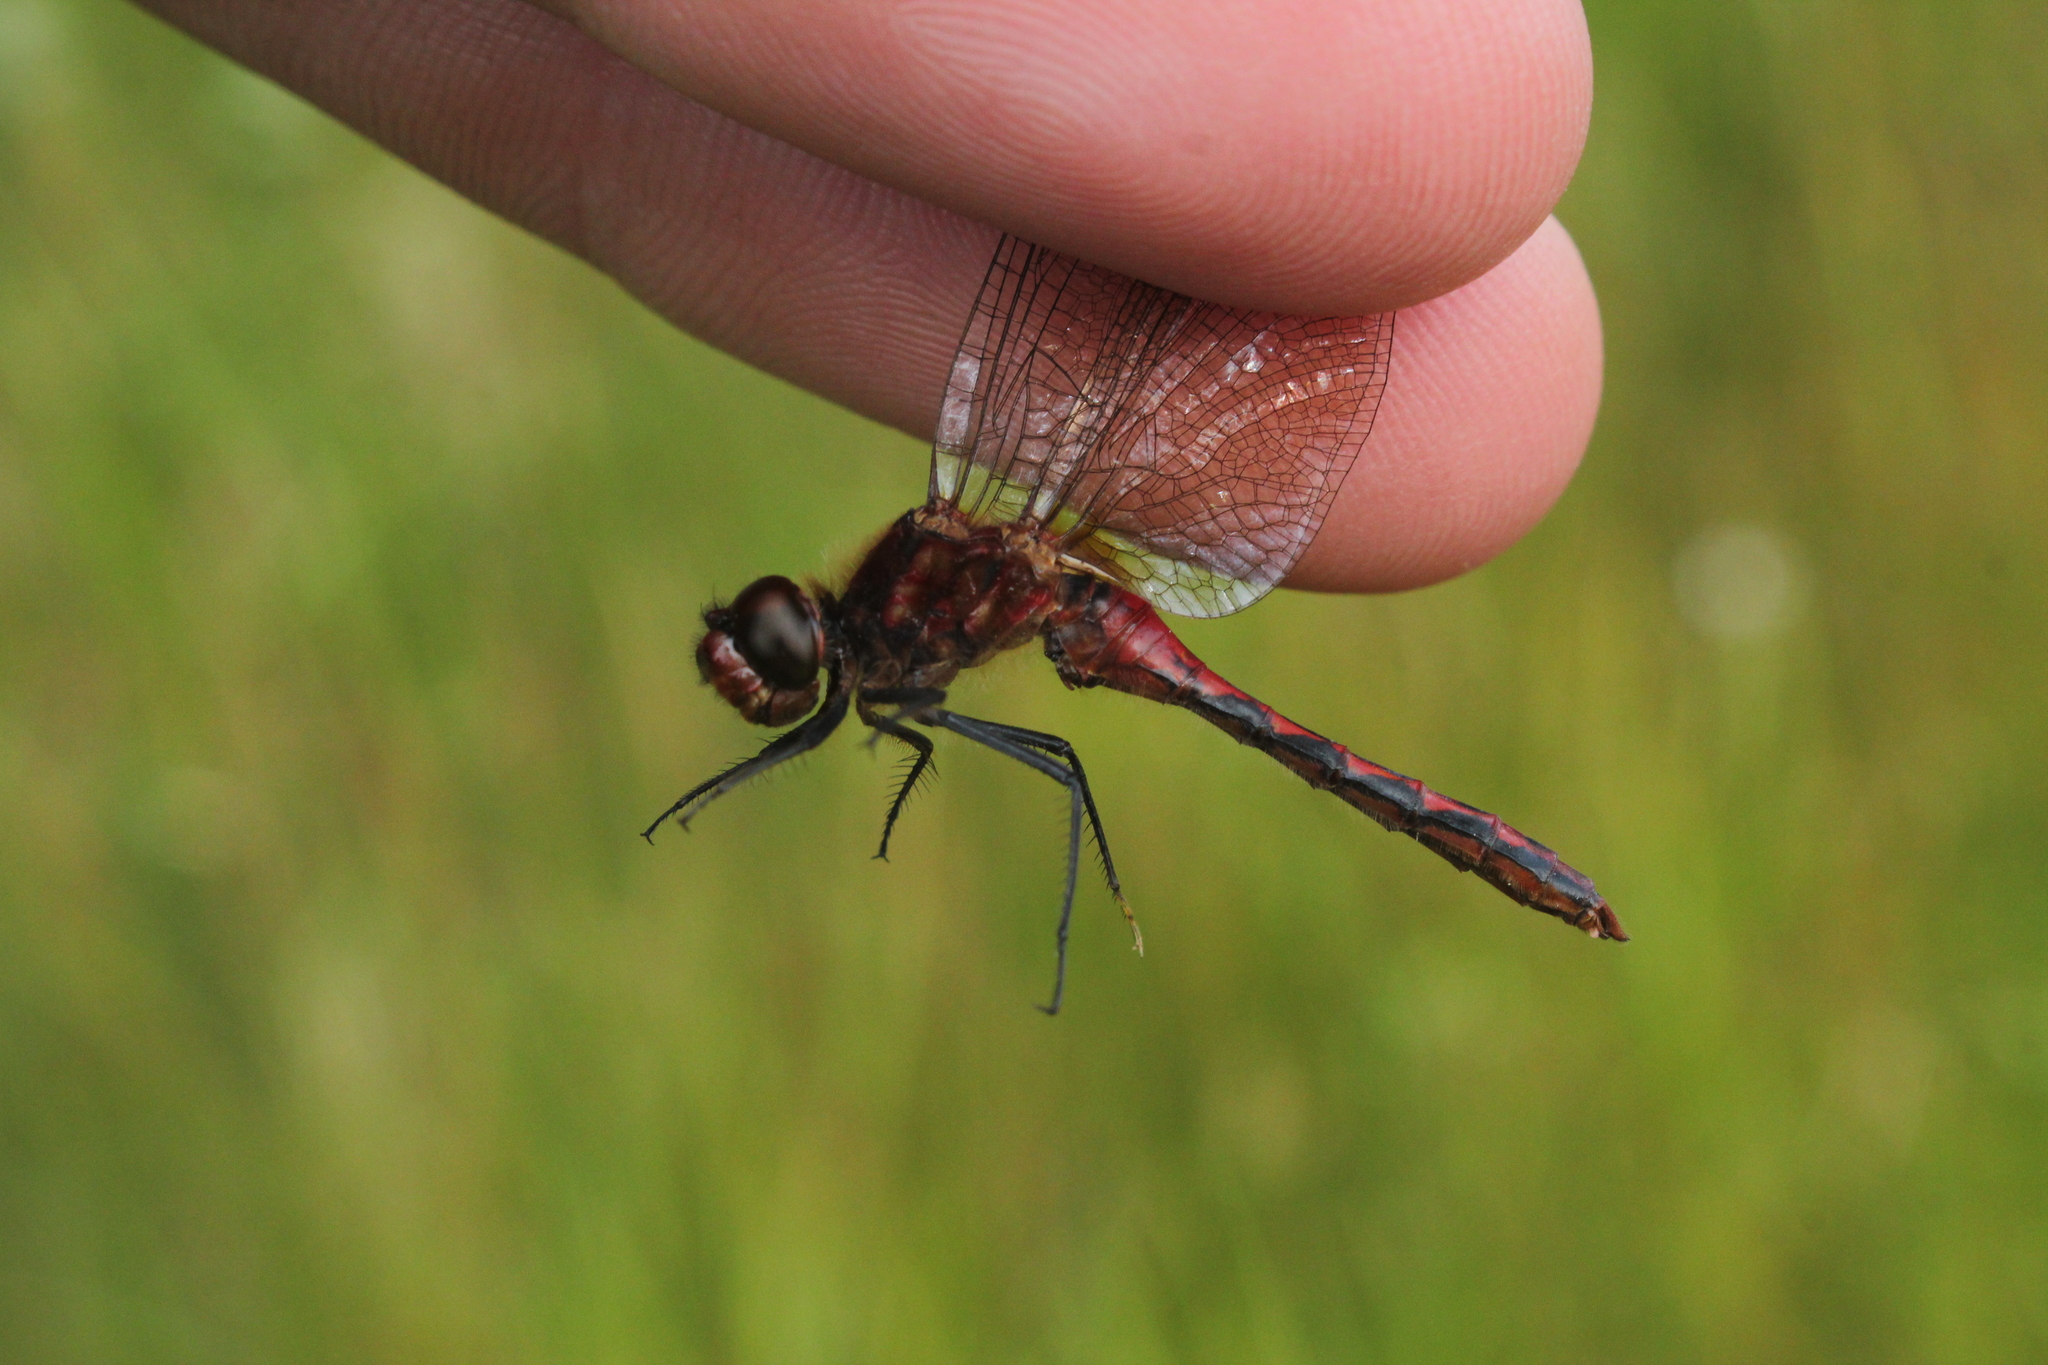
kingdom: Animalia
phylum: Arthropoda
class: Insecta
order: Odonata
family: Libellulidae
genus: Sympetrum
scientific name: Sympetrum internum
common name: Cherry-faced meadowhawk
